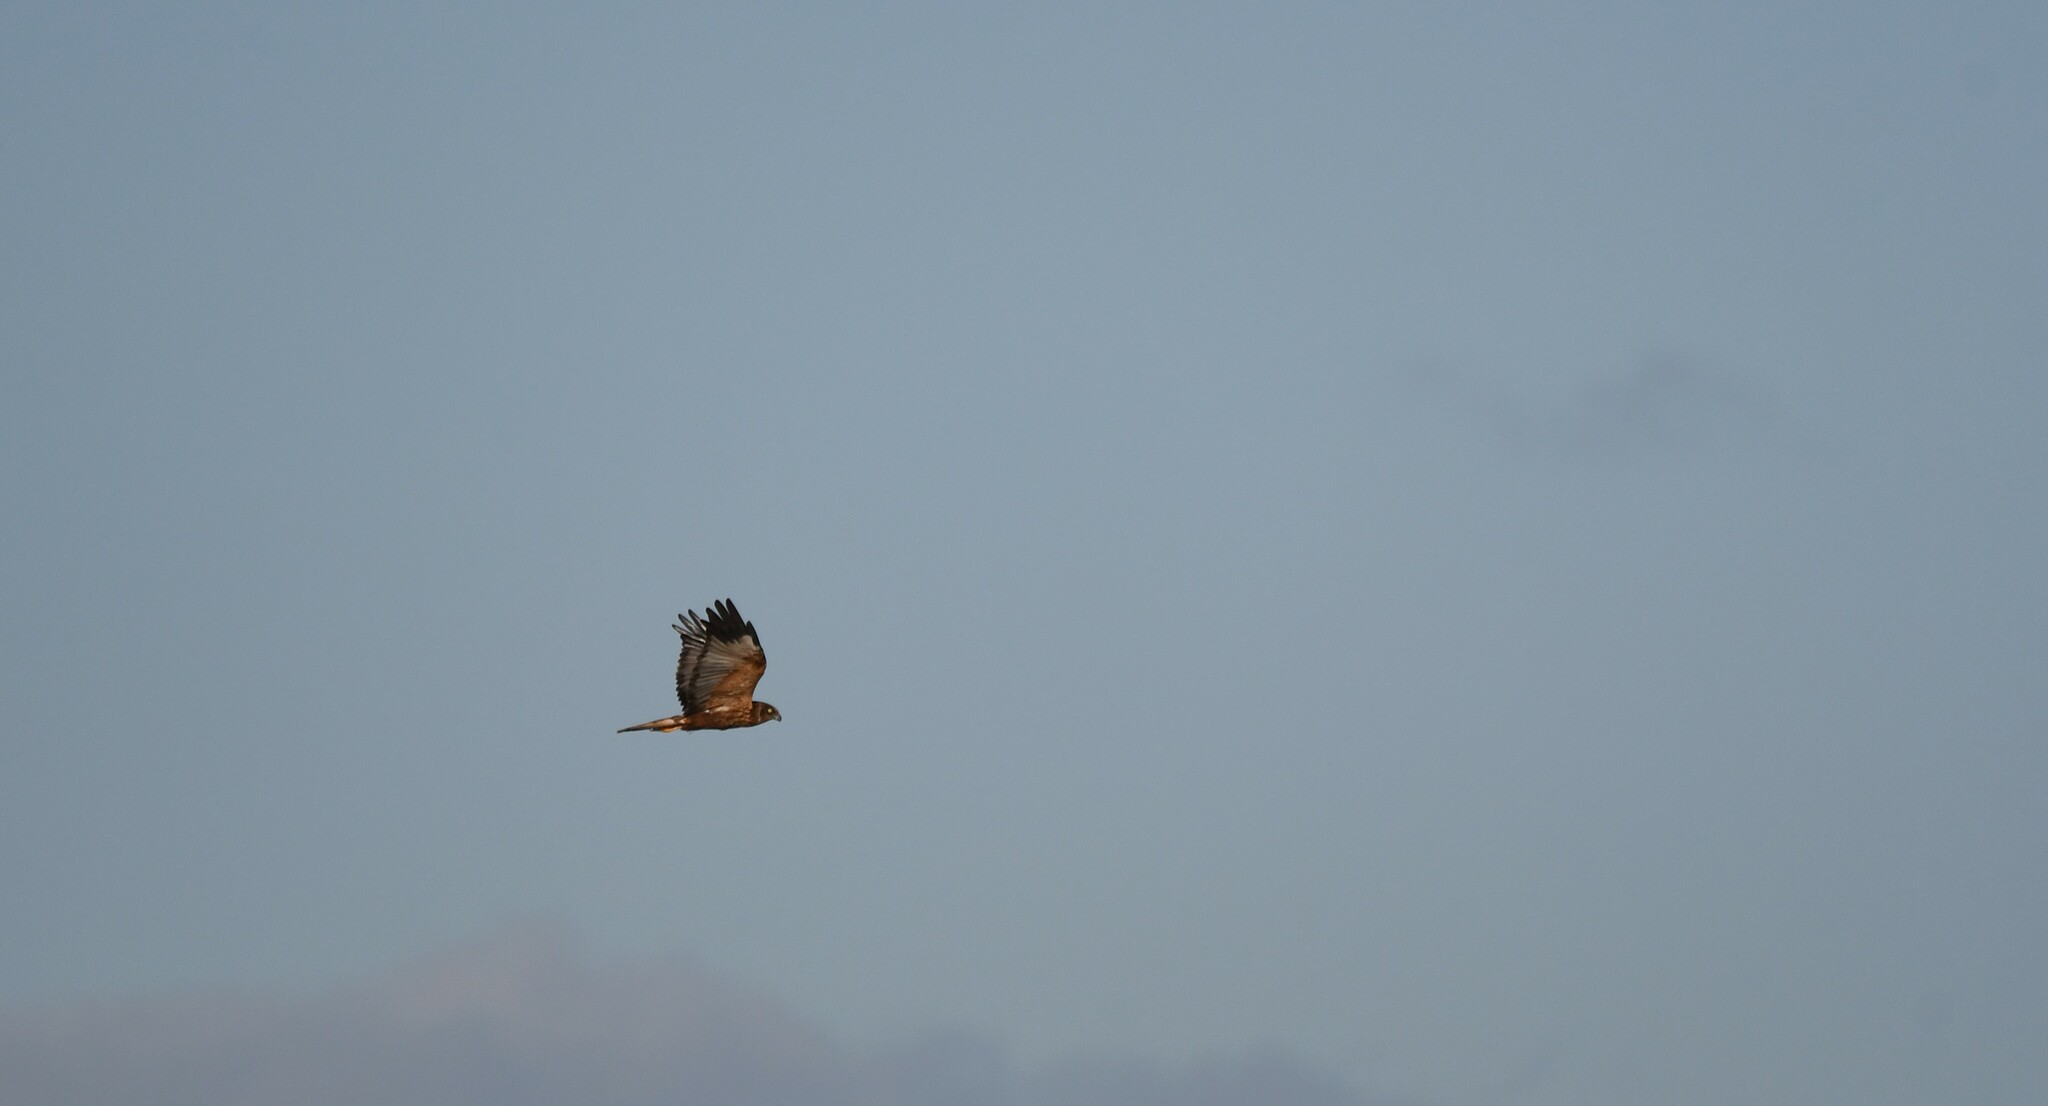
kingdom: Animalia
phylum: Chordata
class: Aves
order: Accipitriformes
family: Accipitridae
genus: Circus
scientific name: Circus aeruginosus
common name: Western marsh harrier
